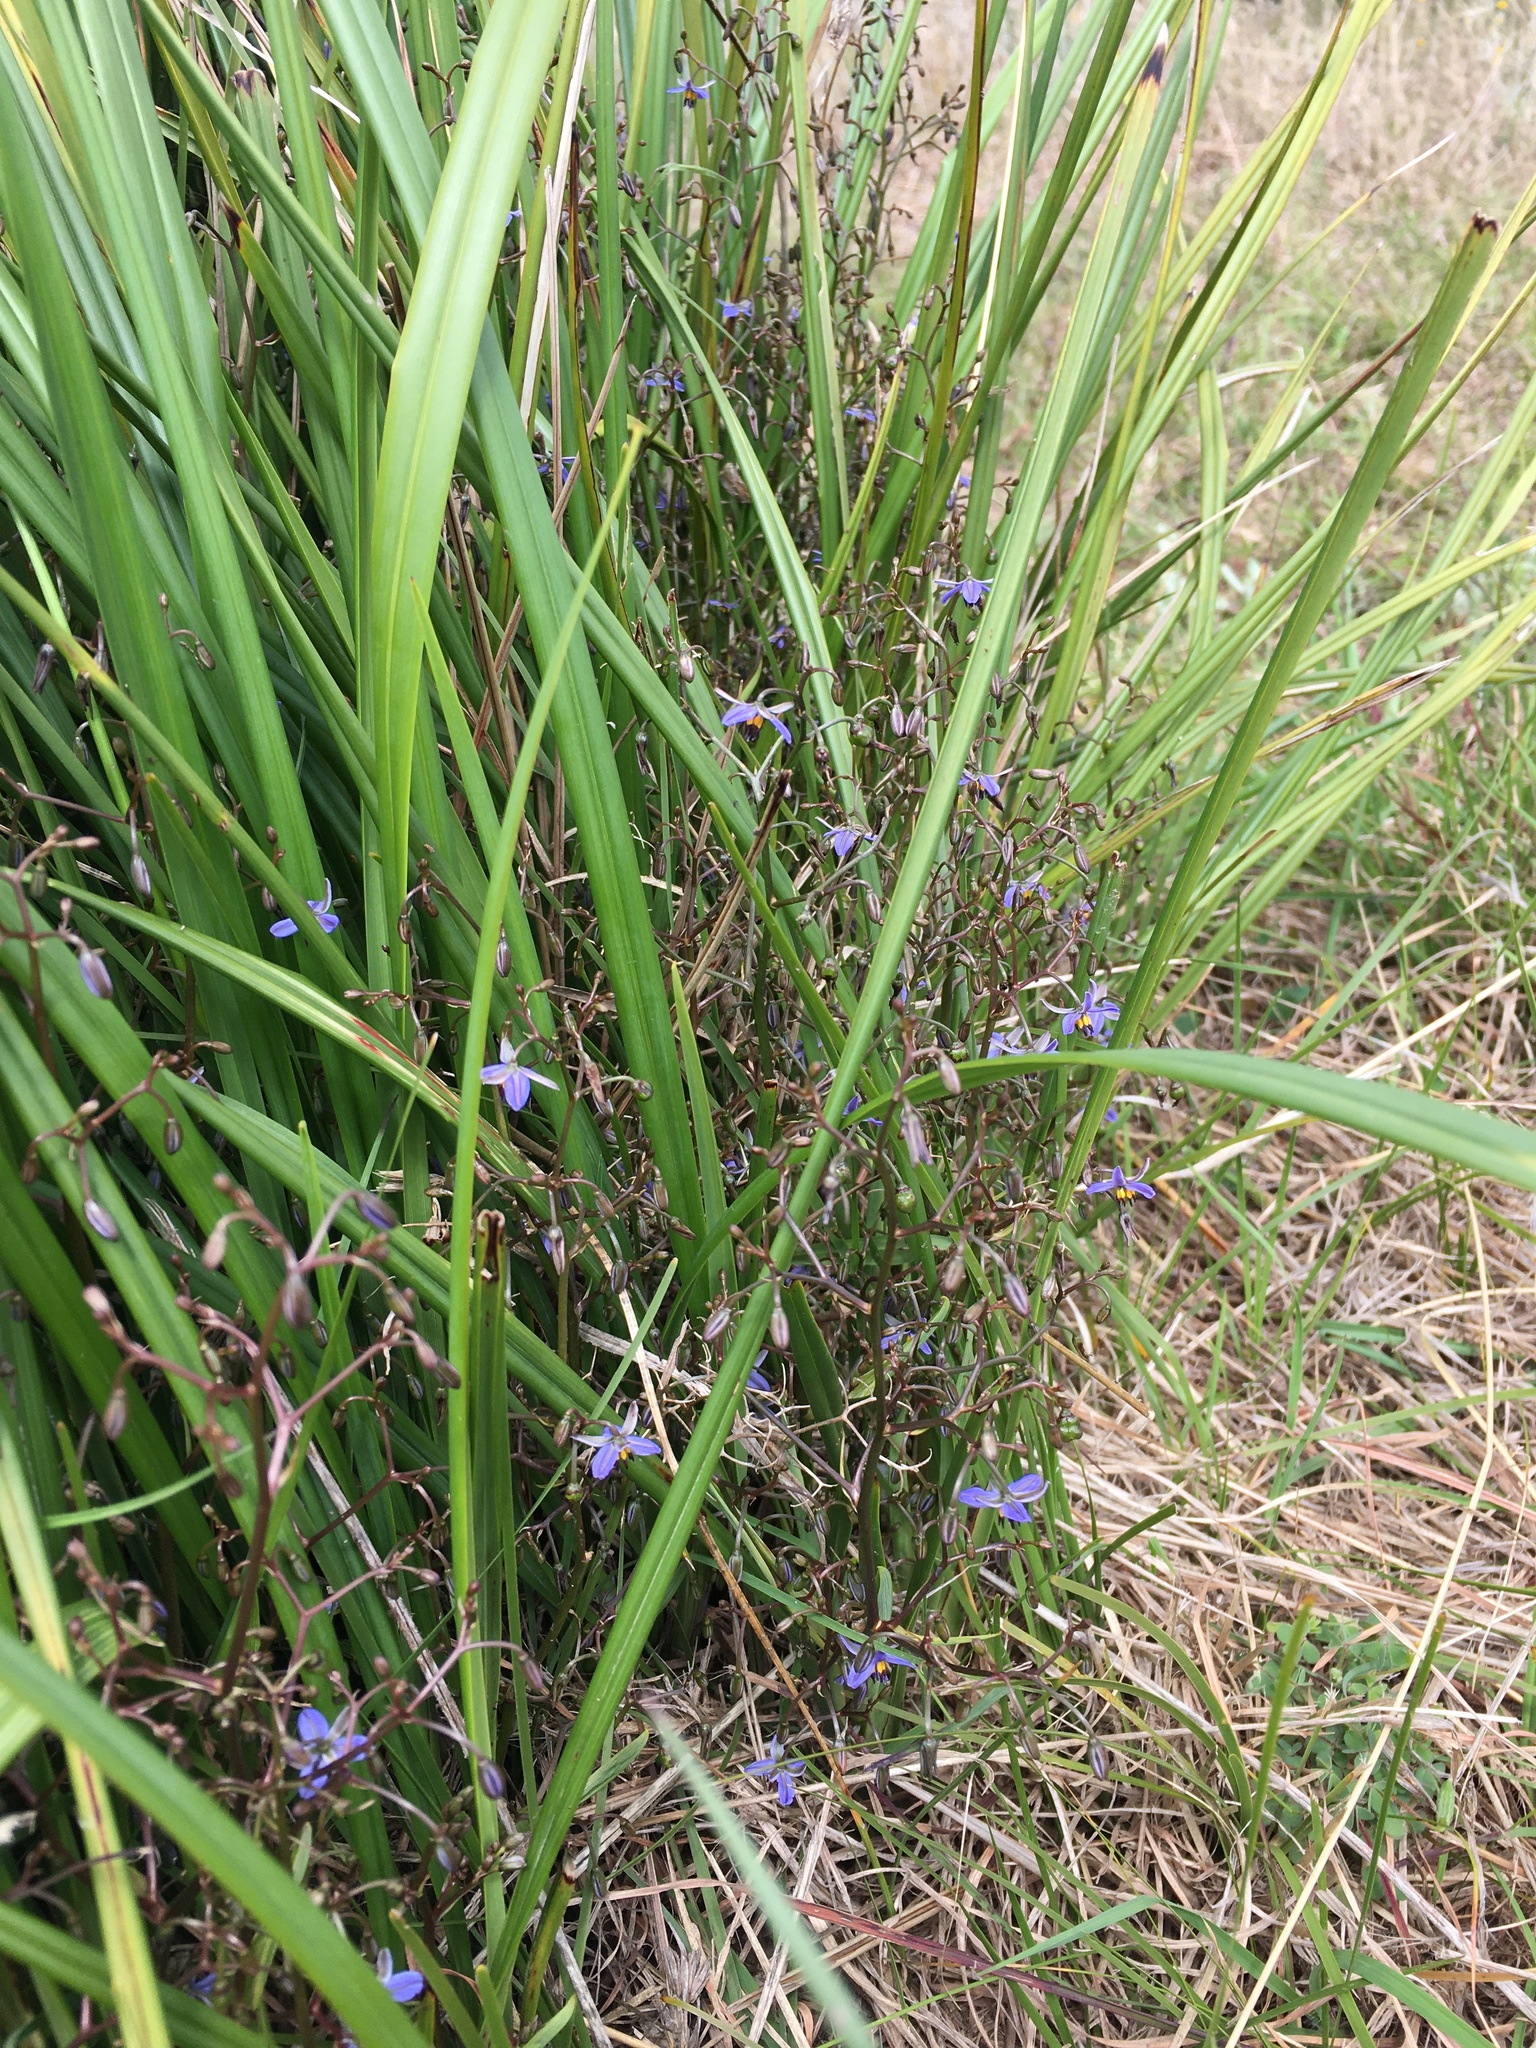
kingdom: Plantae
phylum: Tracheophyta
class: Liliopsida
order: Asparagales
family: Asphodelaceae
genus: Dianella
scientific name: Dianella brevicaulis
